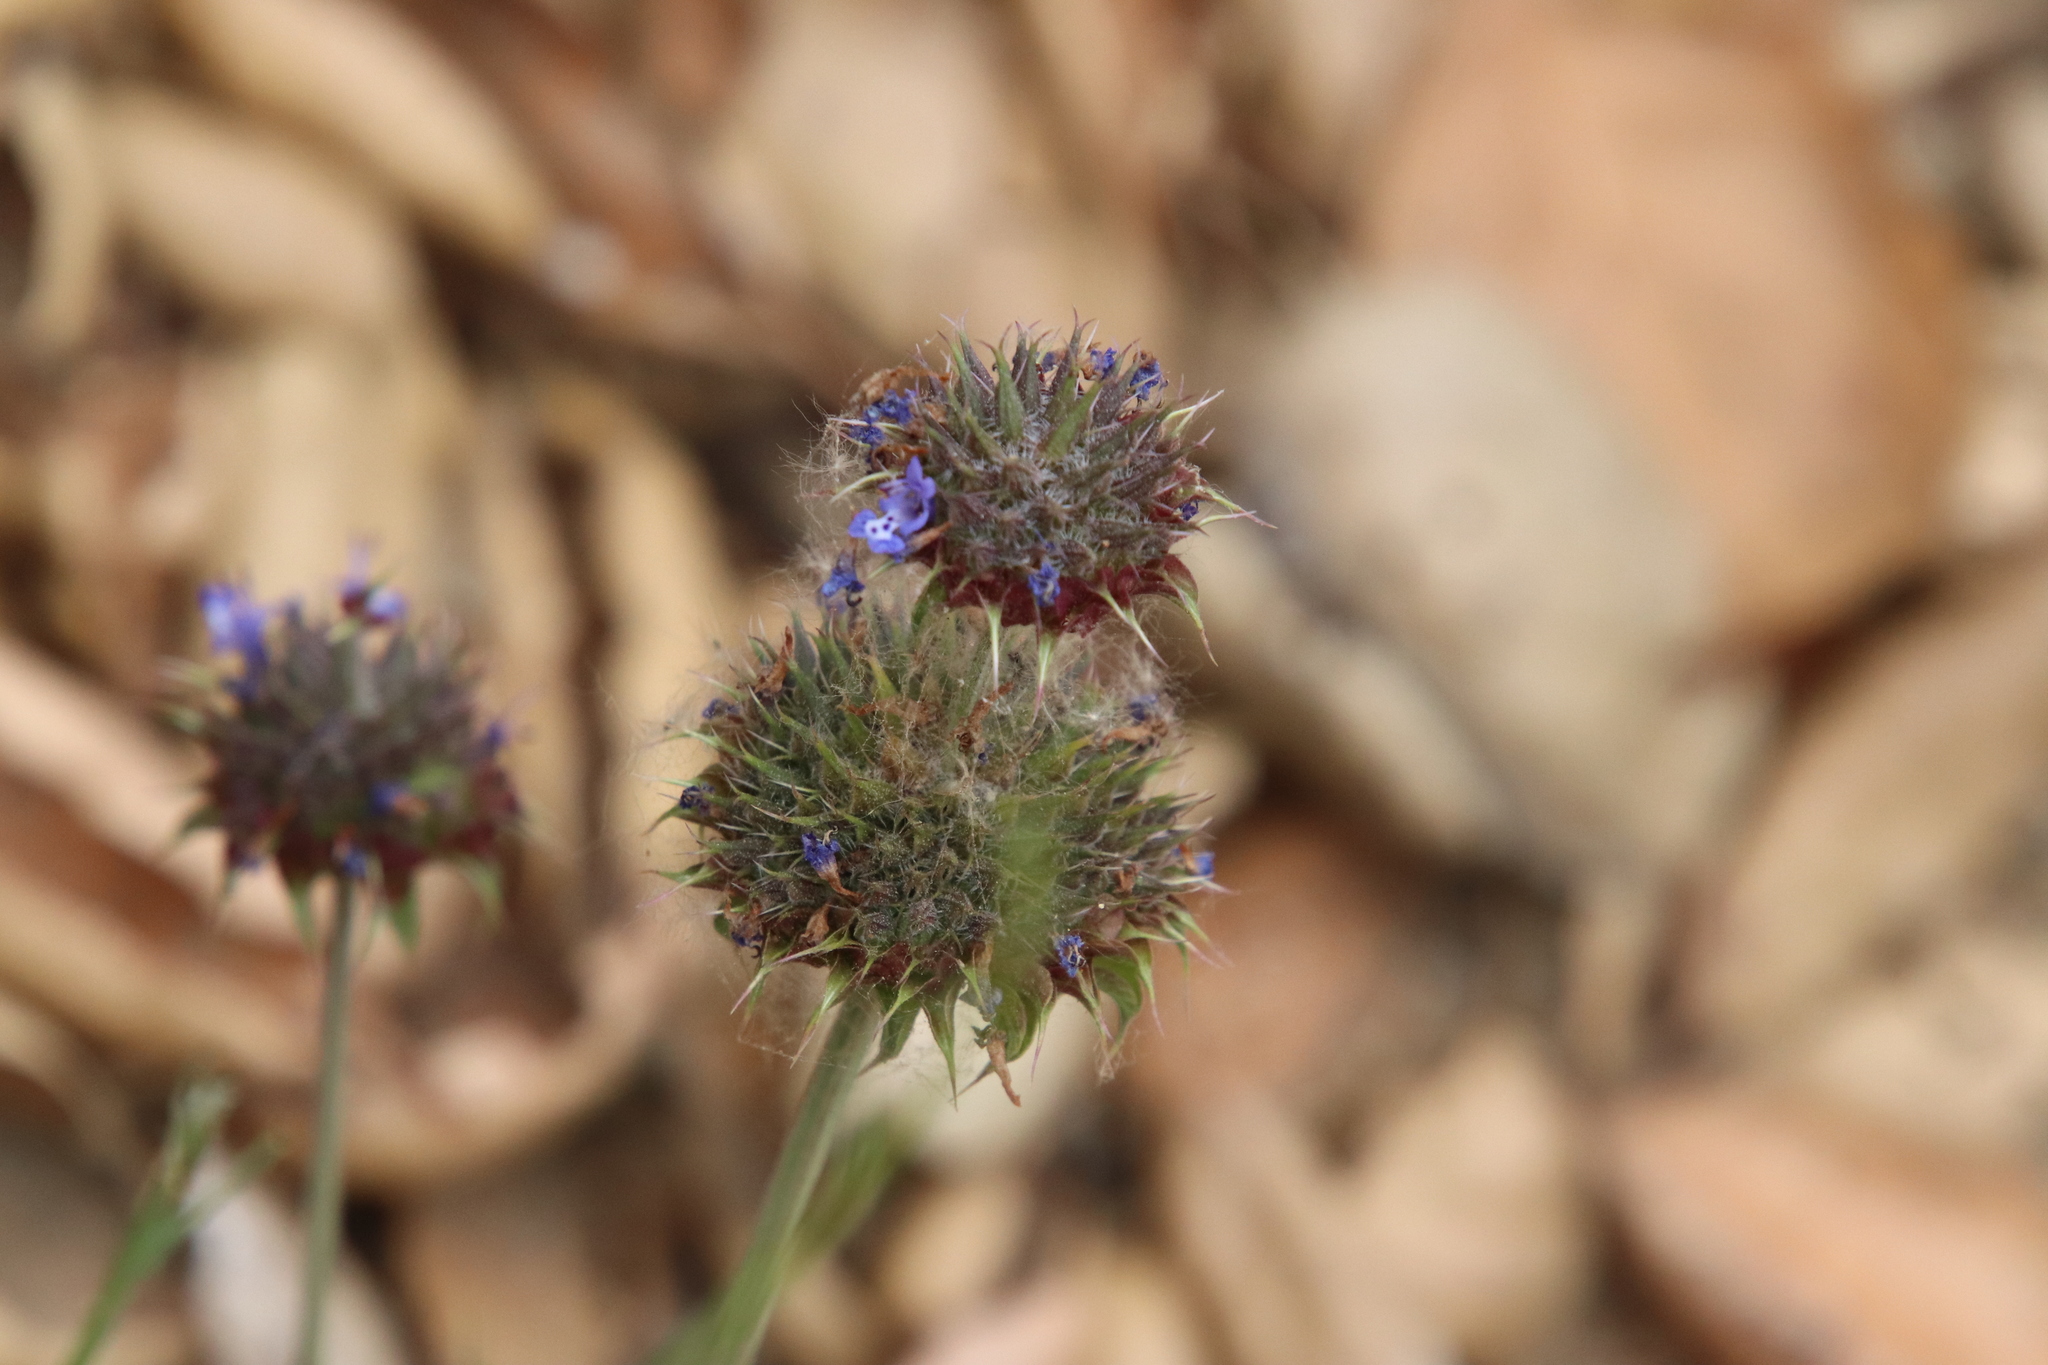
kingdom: Plantae
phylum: Tracheophyta
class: Magnoliopsida
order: Lamiales
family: Lamiaceae
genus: Salvia
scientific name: Salvia columbariae
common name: Chia
